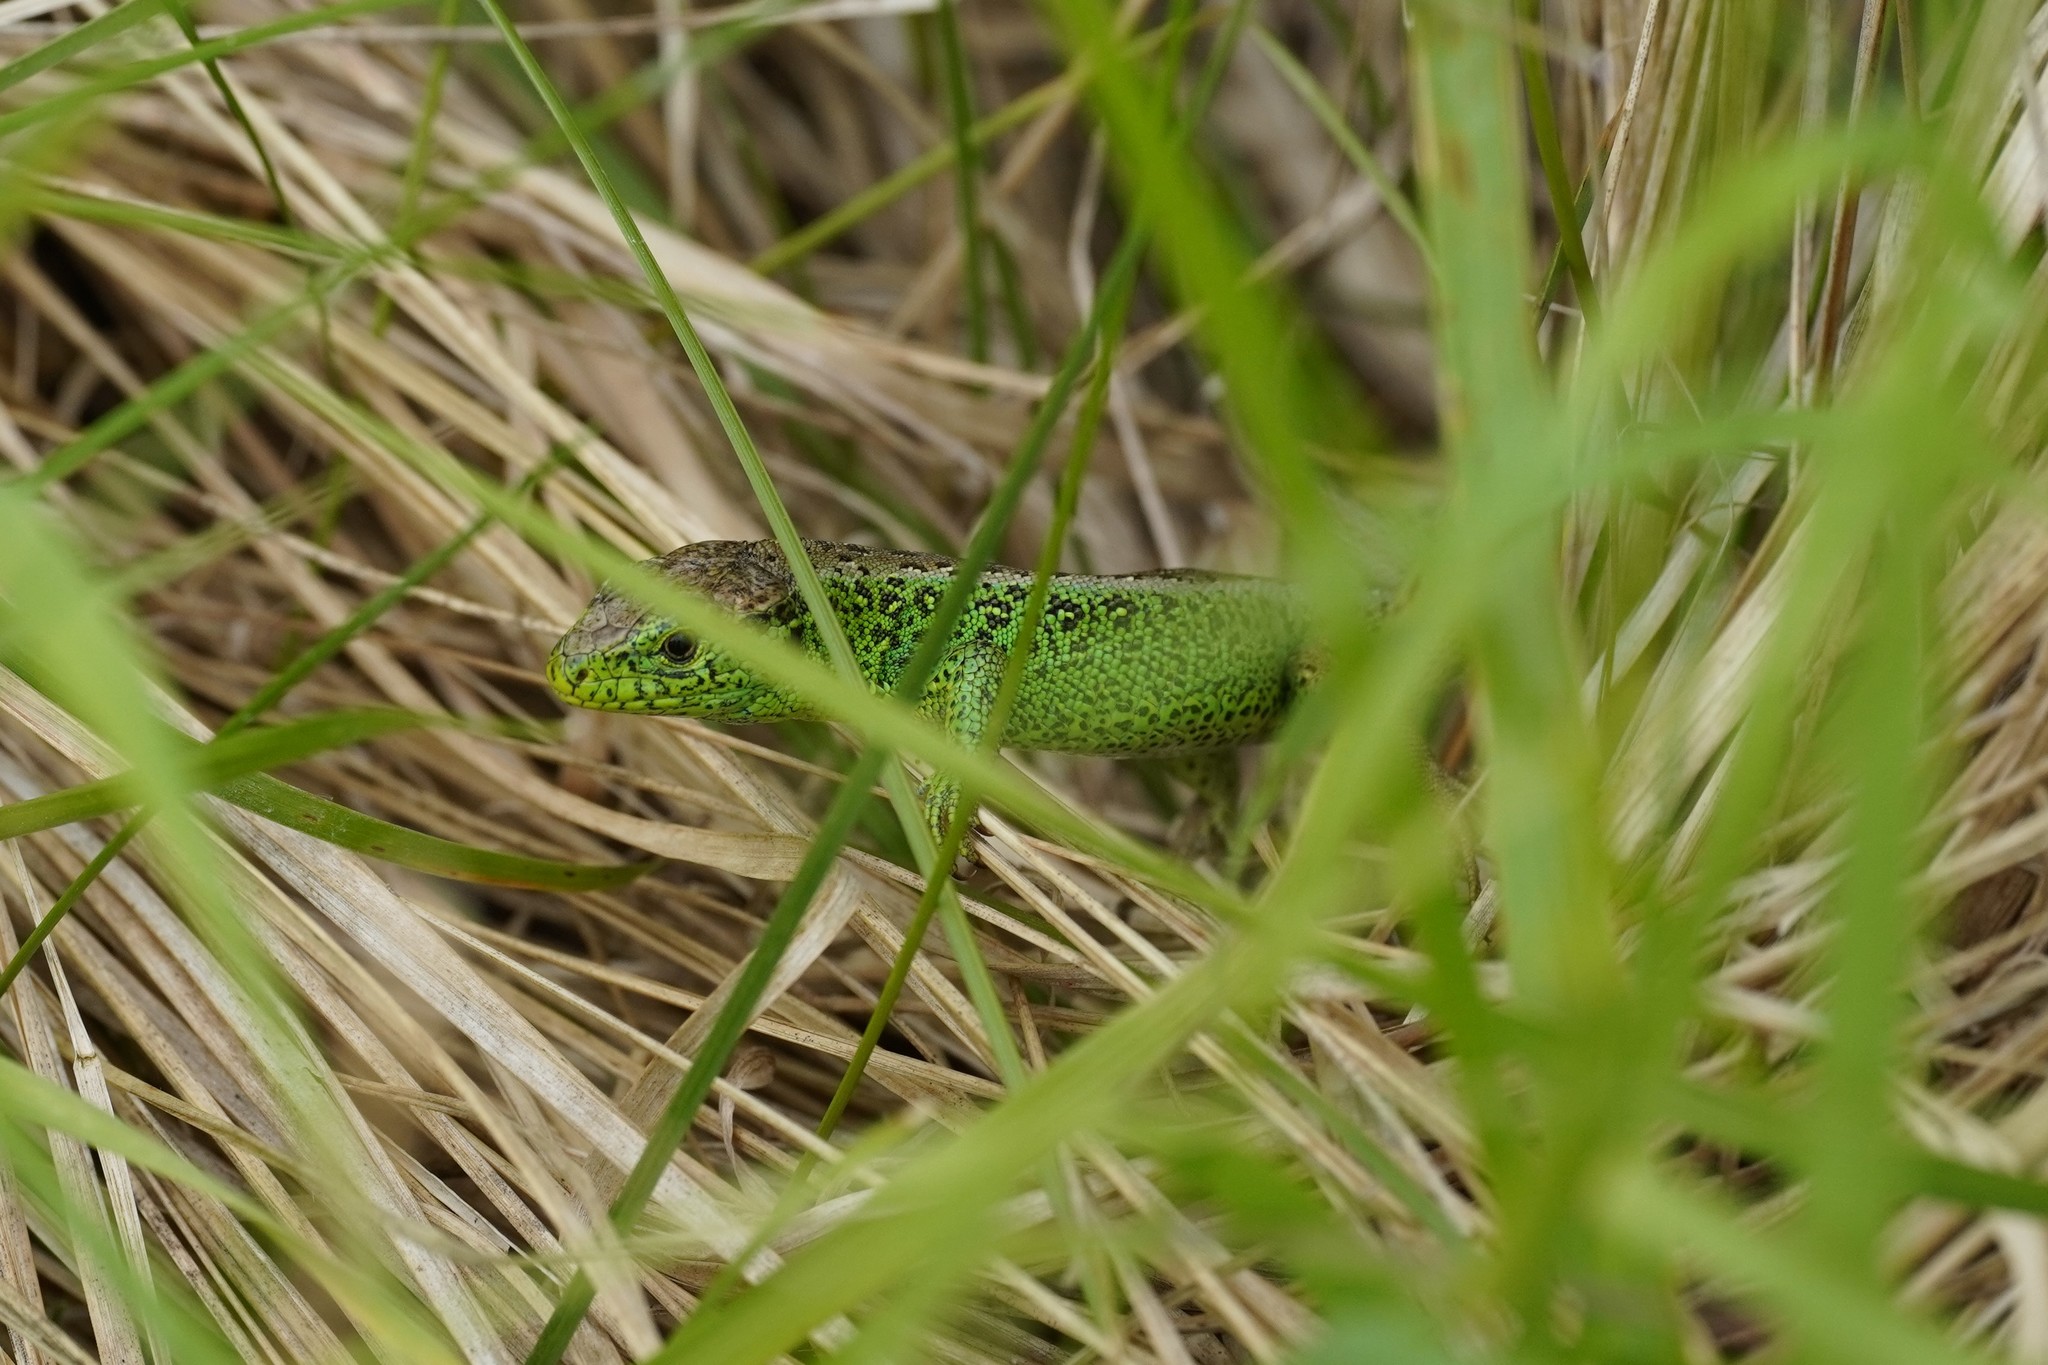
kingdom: Animalia
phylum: Chordata
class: Squamata
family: Lacertidae
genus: Lacerta
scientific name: Lacerta agilis
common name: Sand lizard
